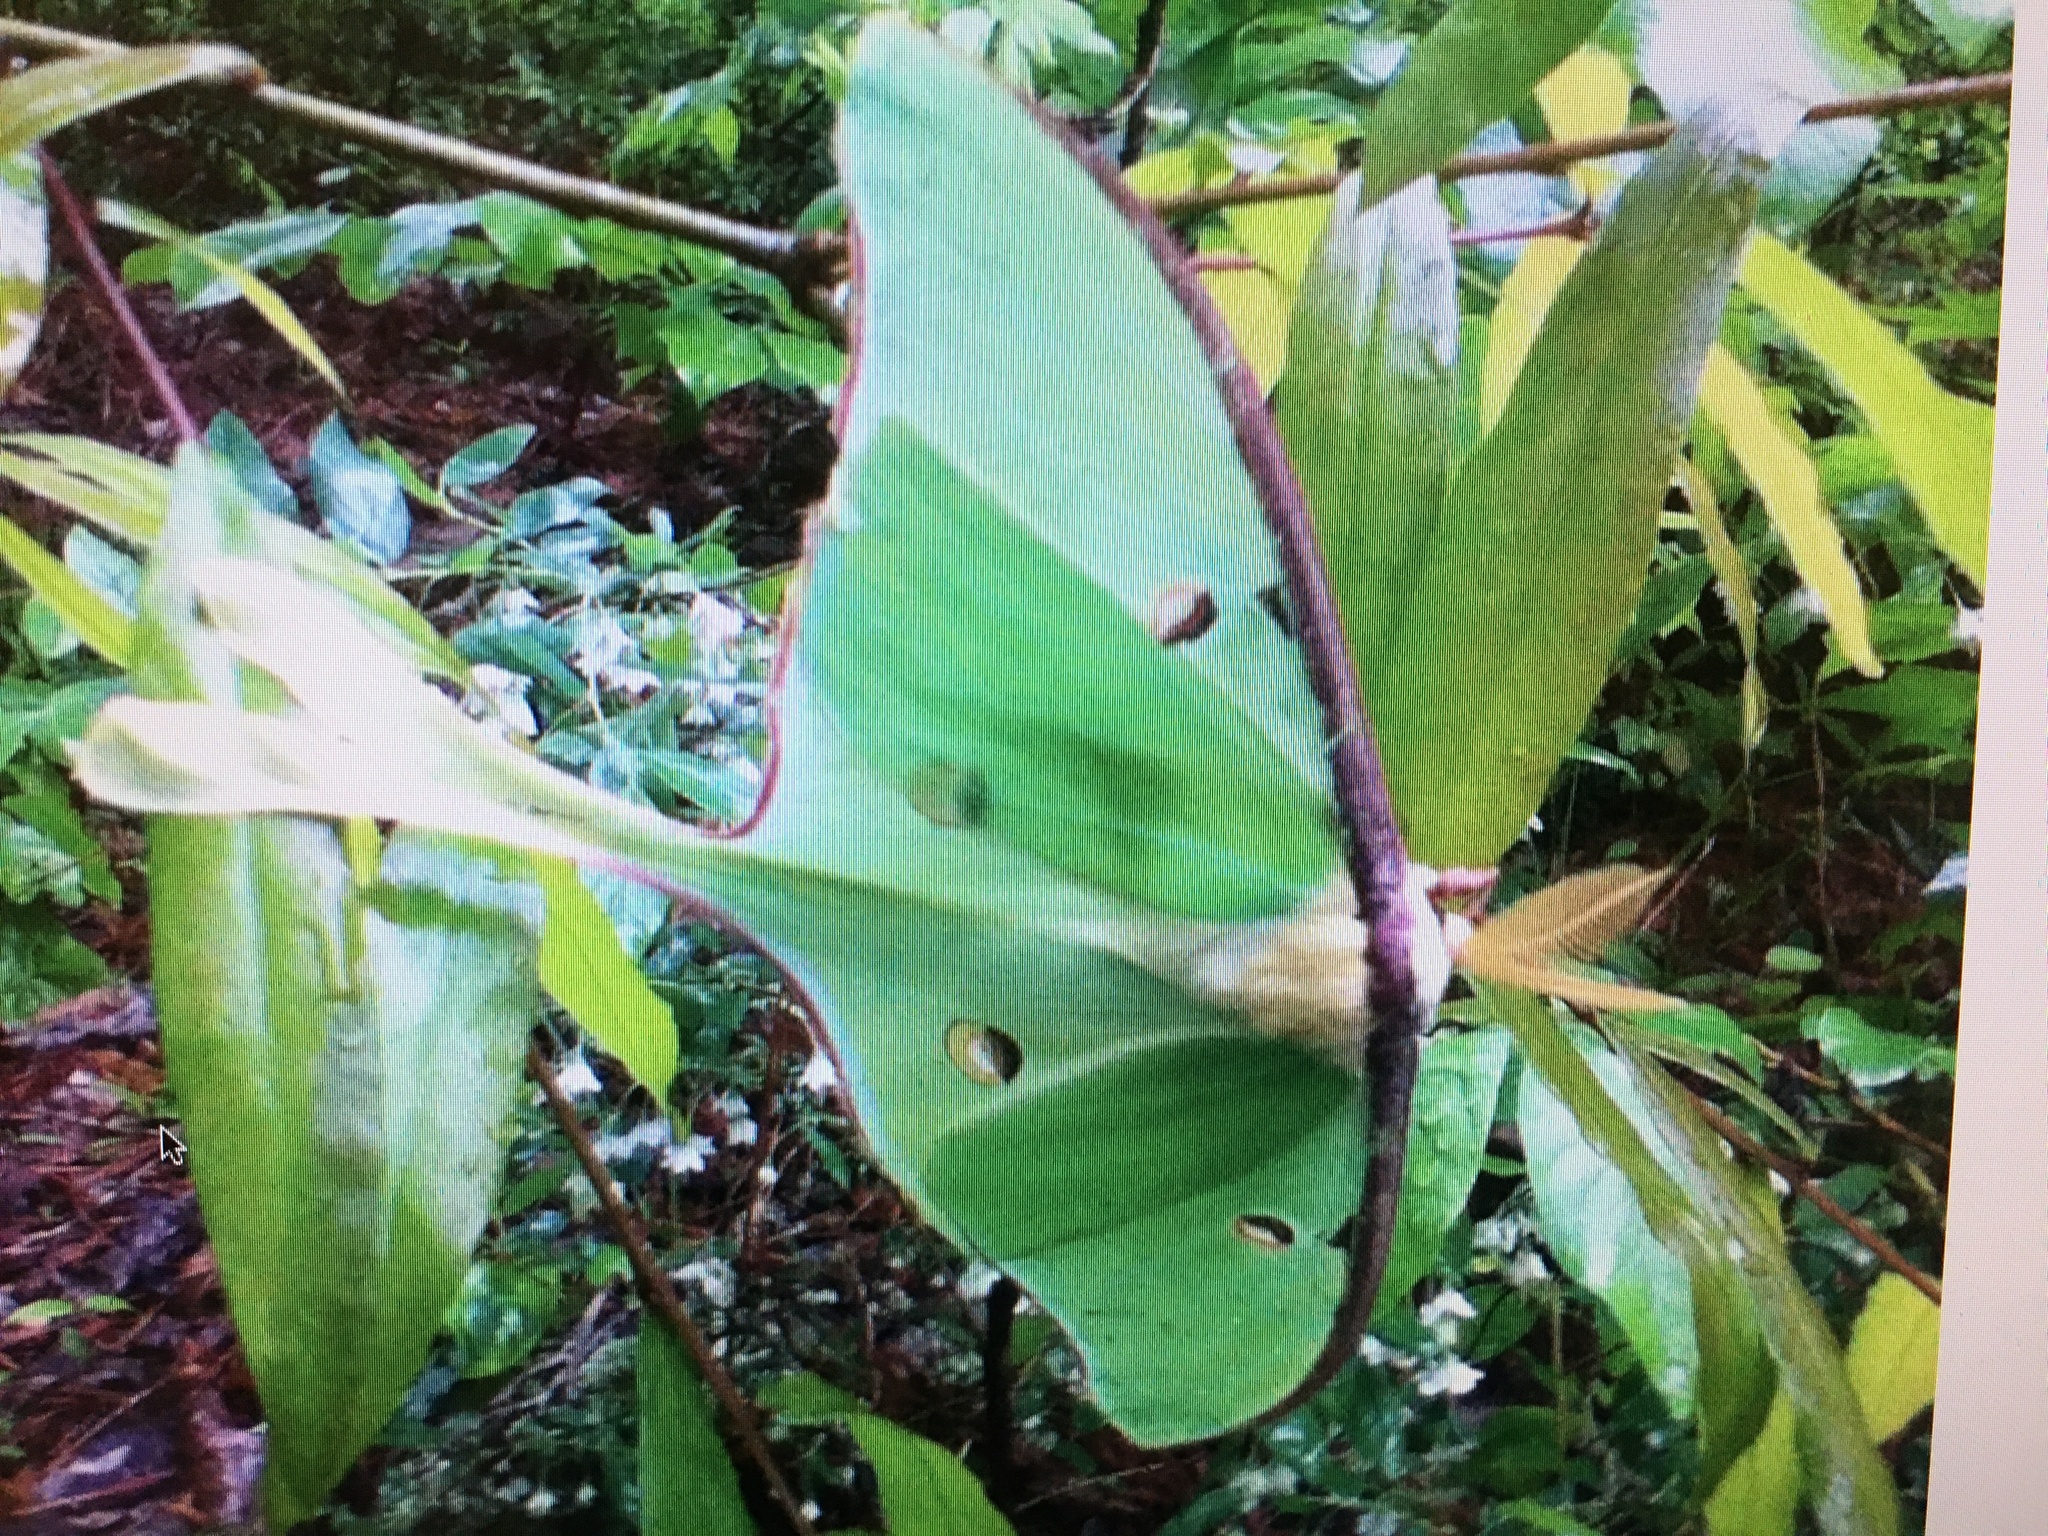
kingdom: Animalia
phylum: Arthropoda
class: Insecta
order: Lepidoptera
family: Saturniidae
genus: Actias
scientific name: Actias luna
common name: Luna moth
